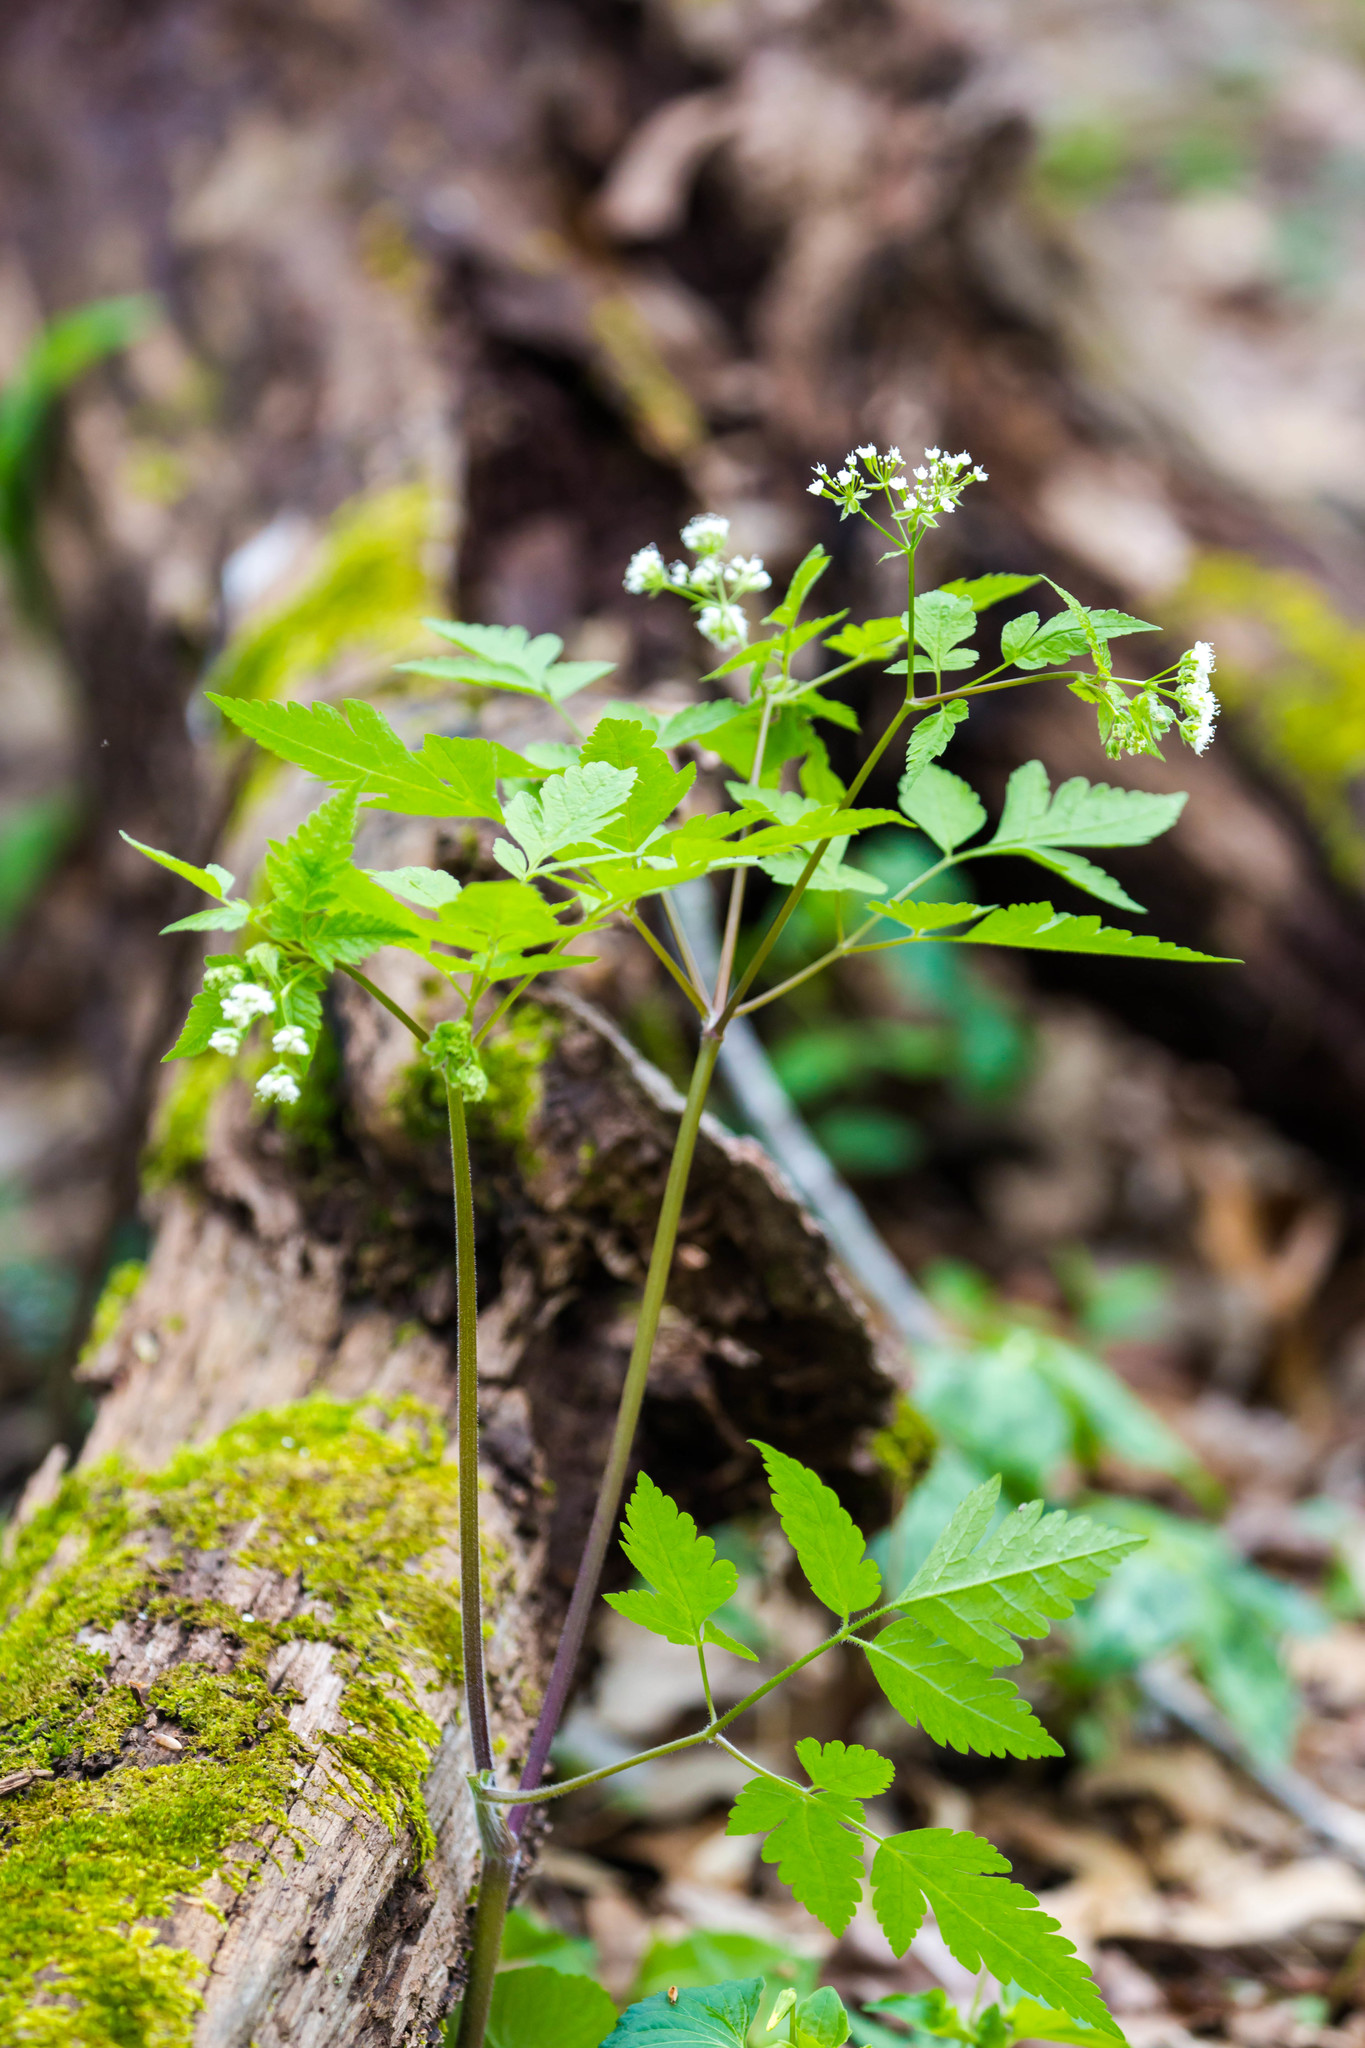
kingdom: Plantae
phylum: Tracheophyta
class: Magnoliopsida
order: Apiales
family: Apiaceae
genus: Osmorhiza
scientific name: Osmorhiza longistylis
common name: Smooth sweet cicely
